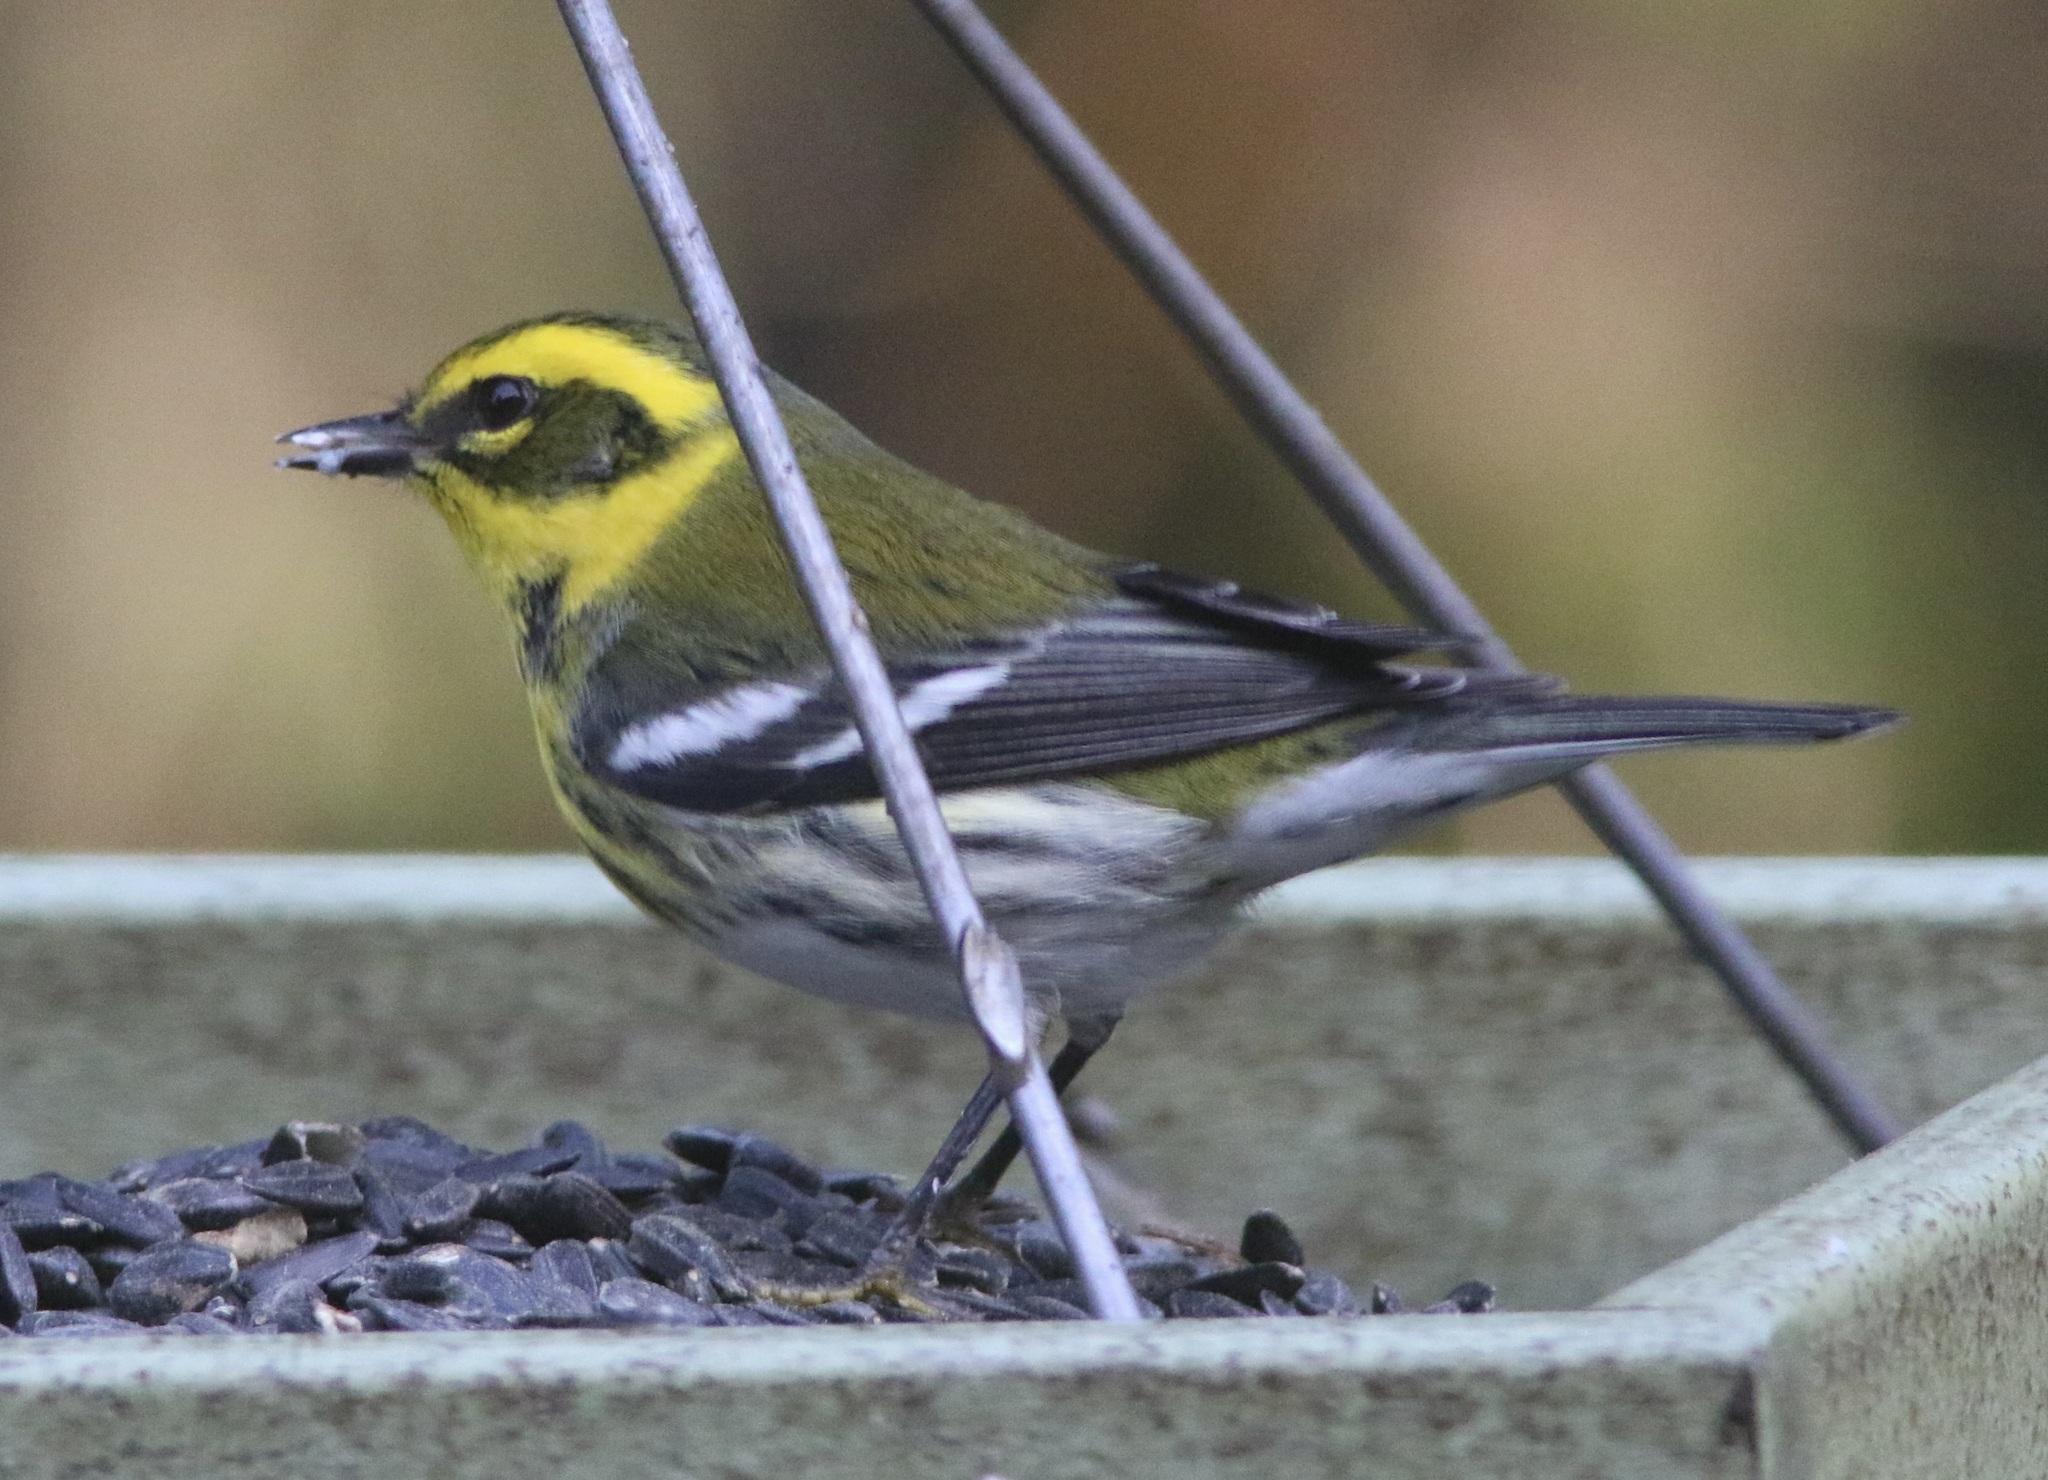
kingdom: Animalia
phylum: Chordata
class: Aves
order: Passeriformes
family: Parulidae
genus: Setophaga
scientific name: Setophaga townsendi
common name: Townsend's warbler
